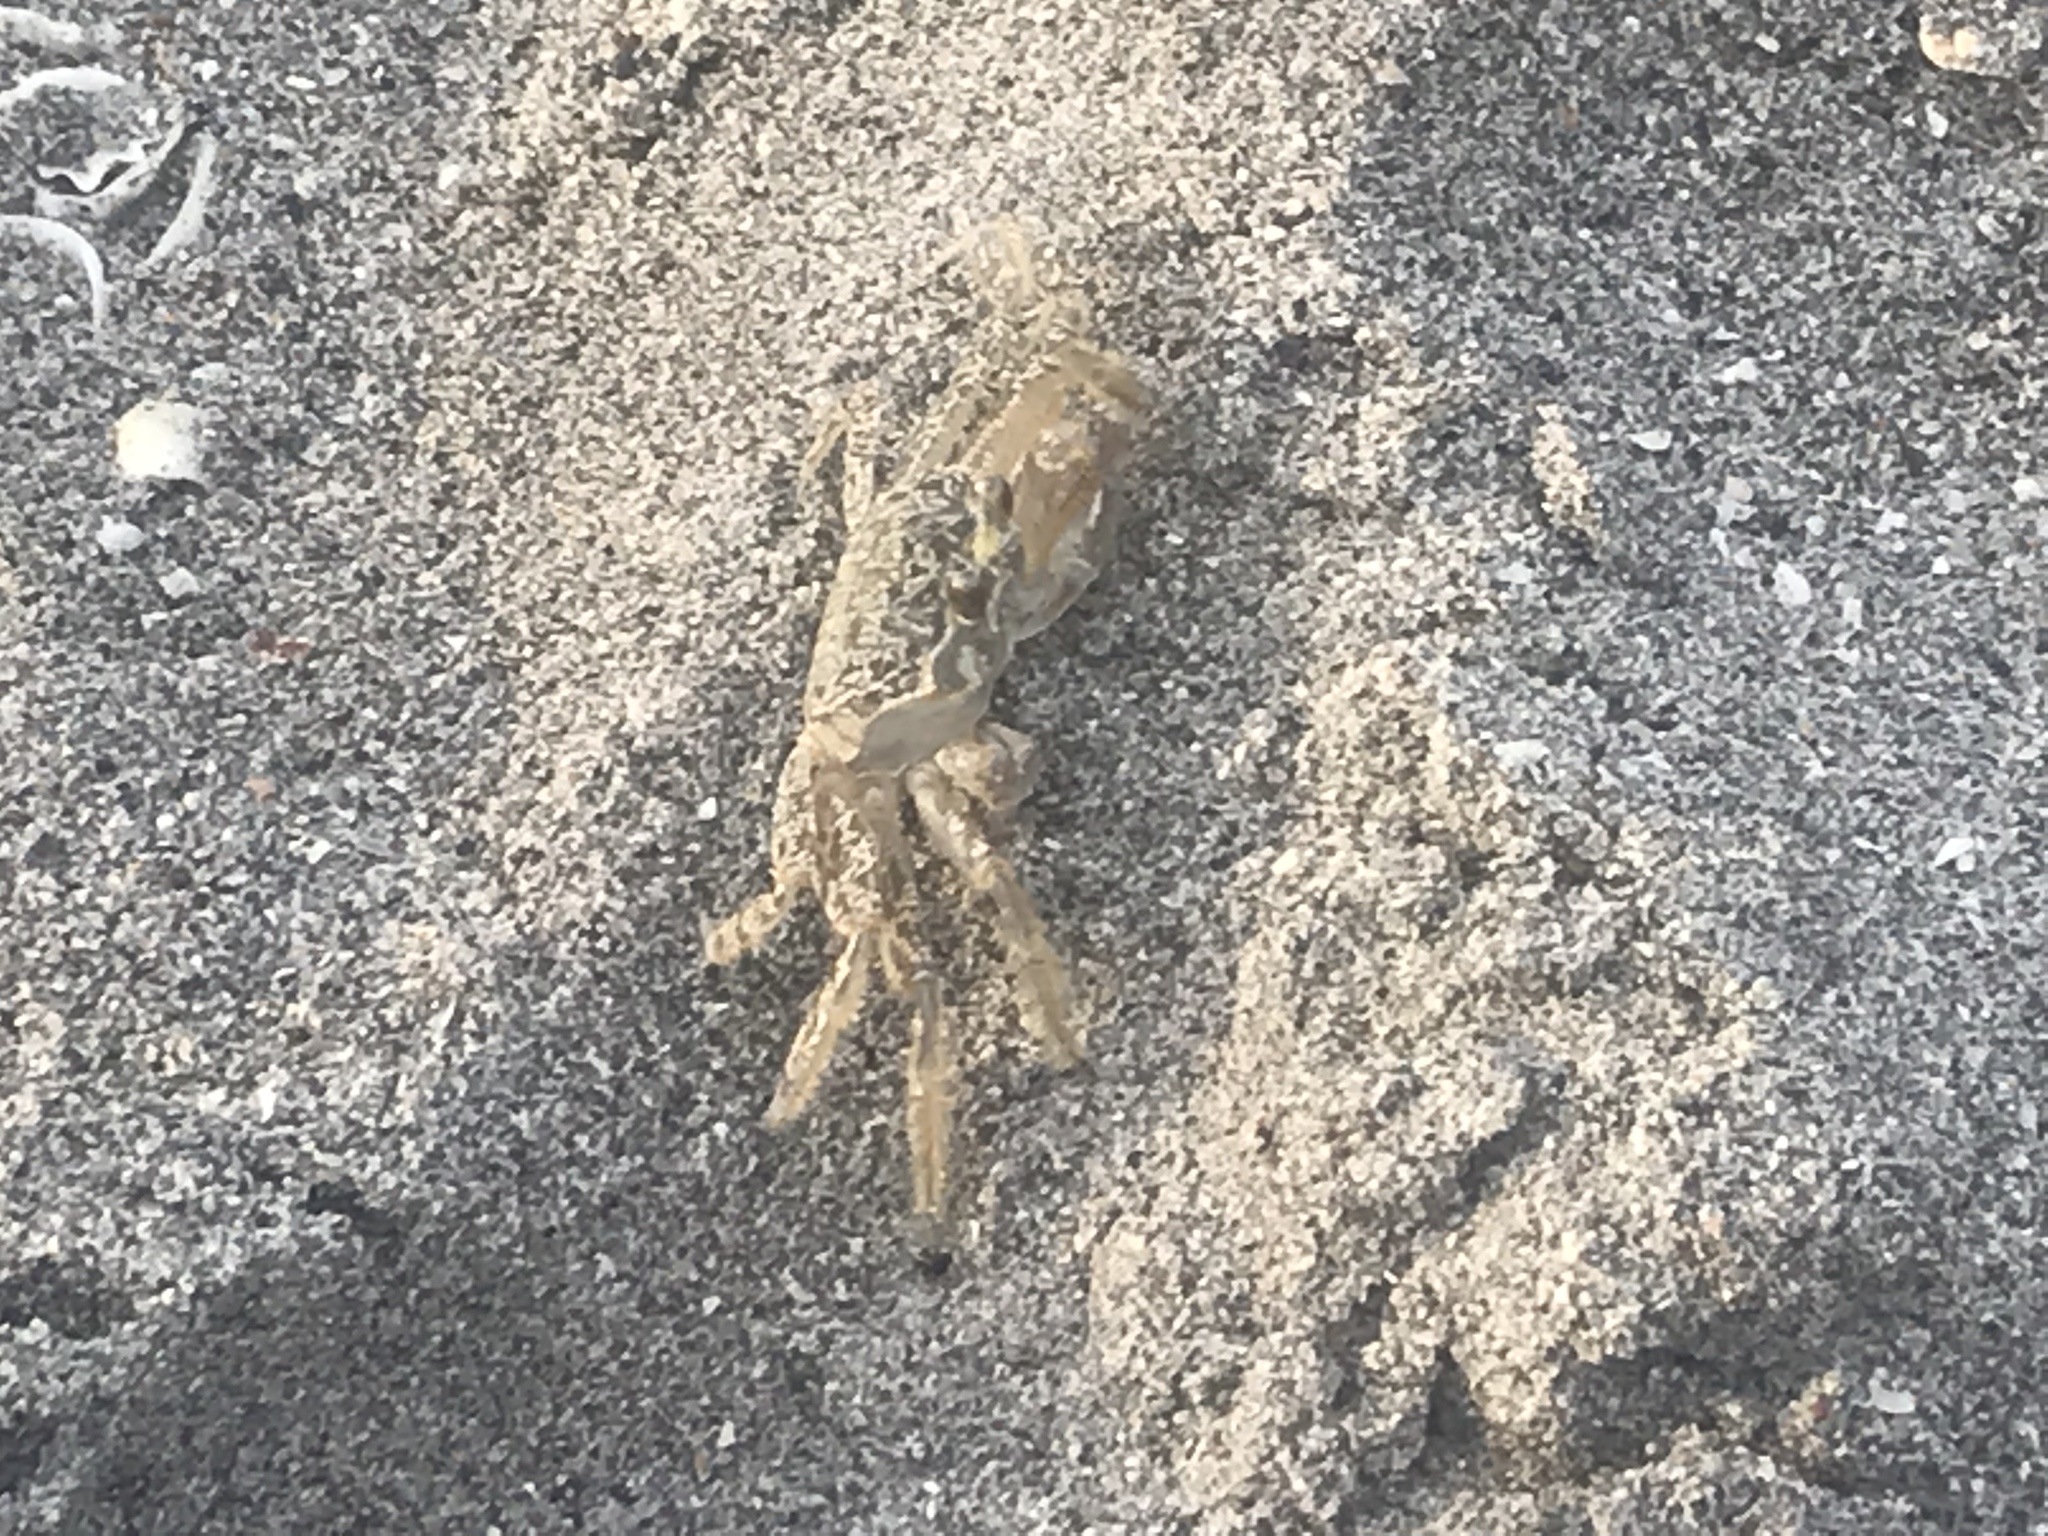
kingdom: Animalia
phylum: Arthropoda
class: Malacostraca
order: Decapoda
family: Ocypodidae
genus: Ocypode
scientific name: Ocypode quadrata
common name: Ghost crab
